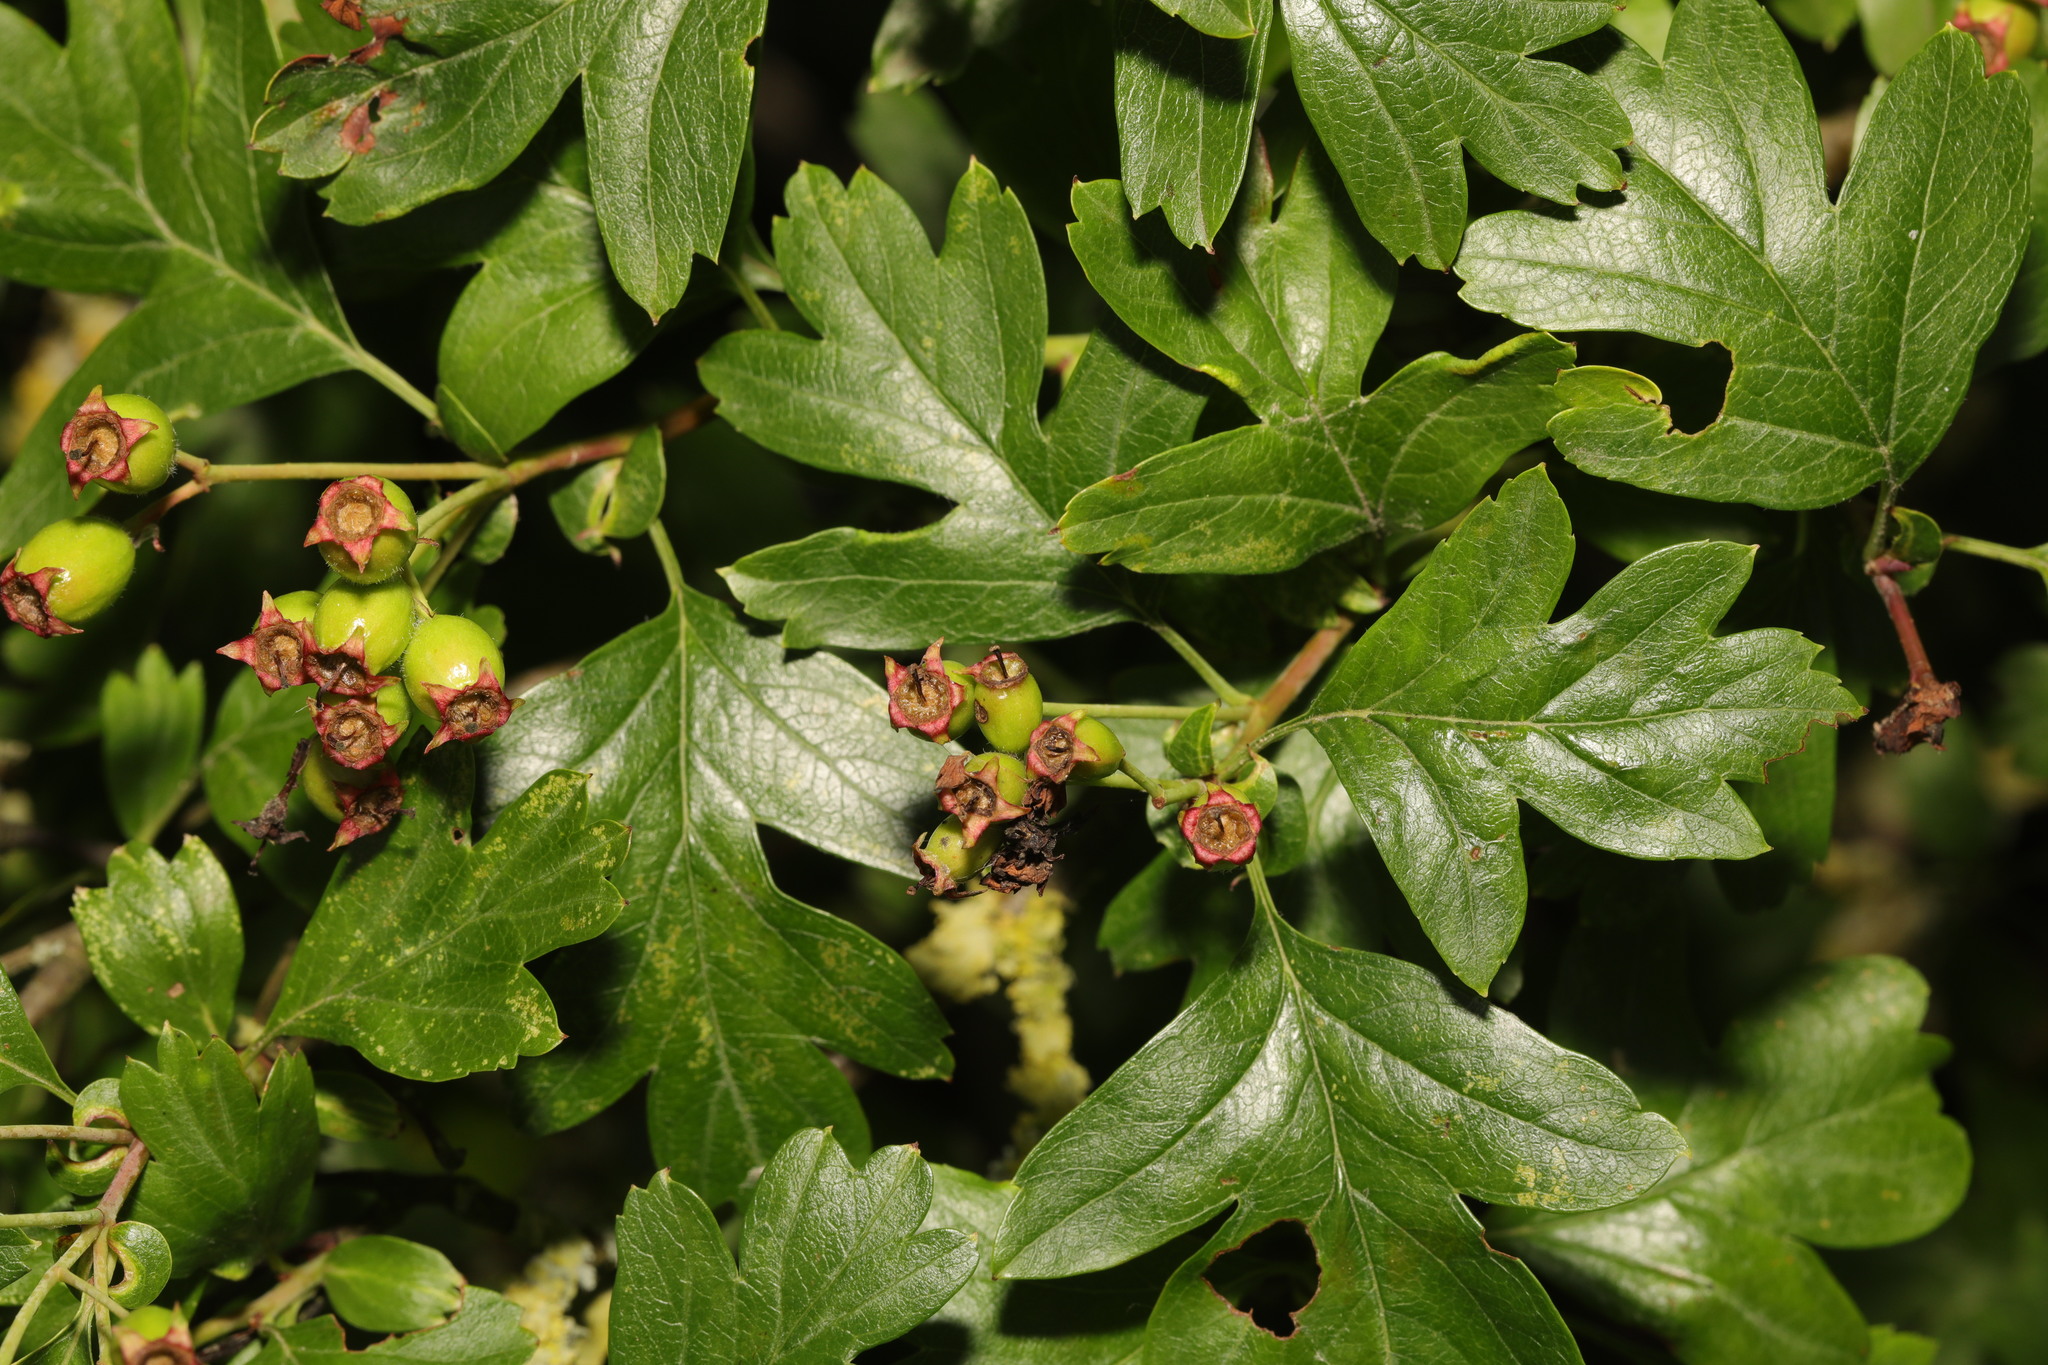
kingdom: Plantae
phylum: Tracheophyta
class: Magnoliopsida
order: Rosales
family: Rosaceae
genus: Crataegus
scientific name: Crataegus monogyna
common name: Hawthorn
